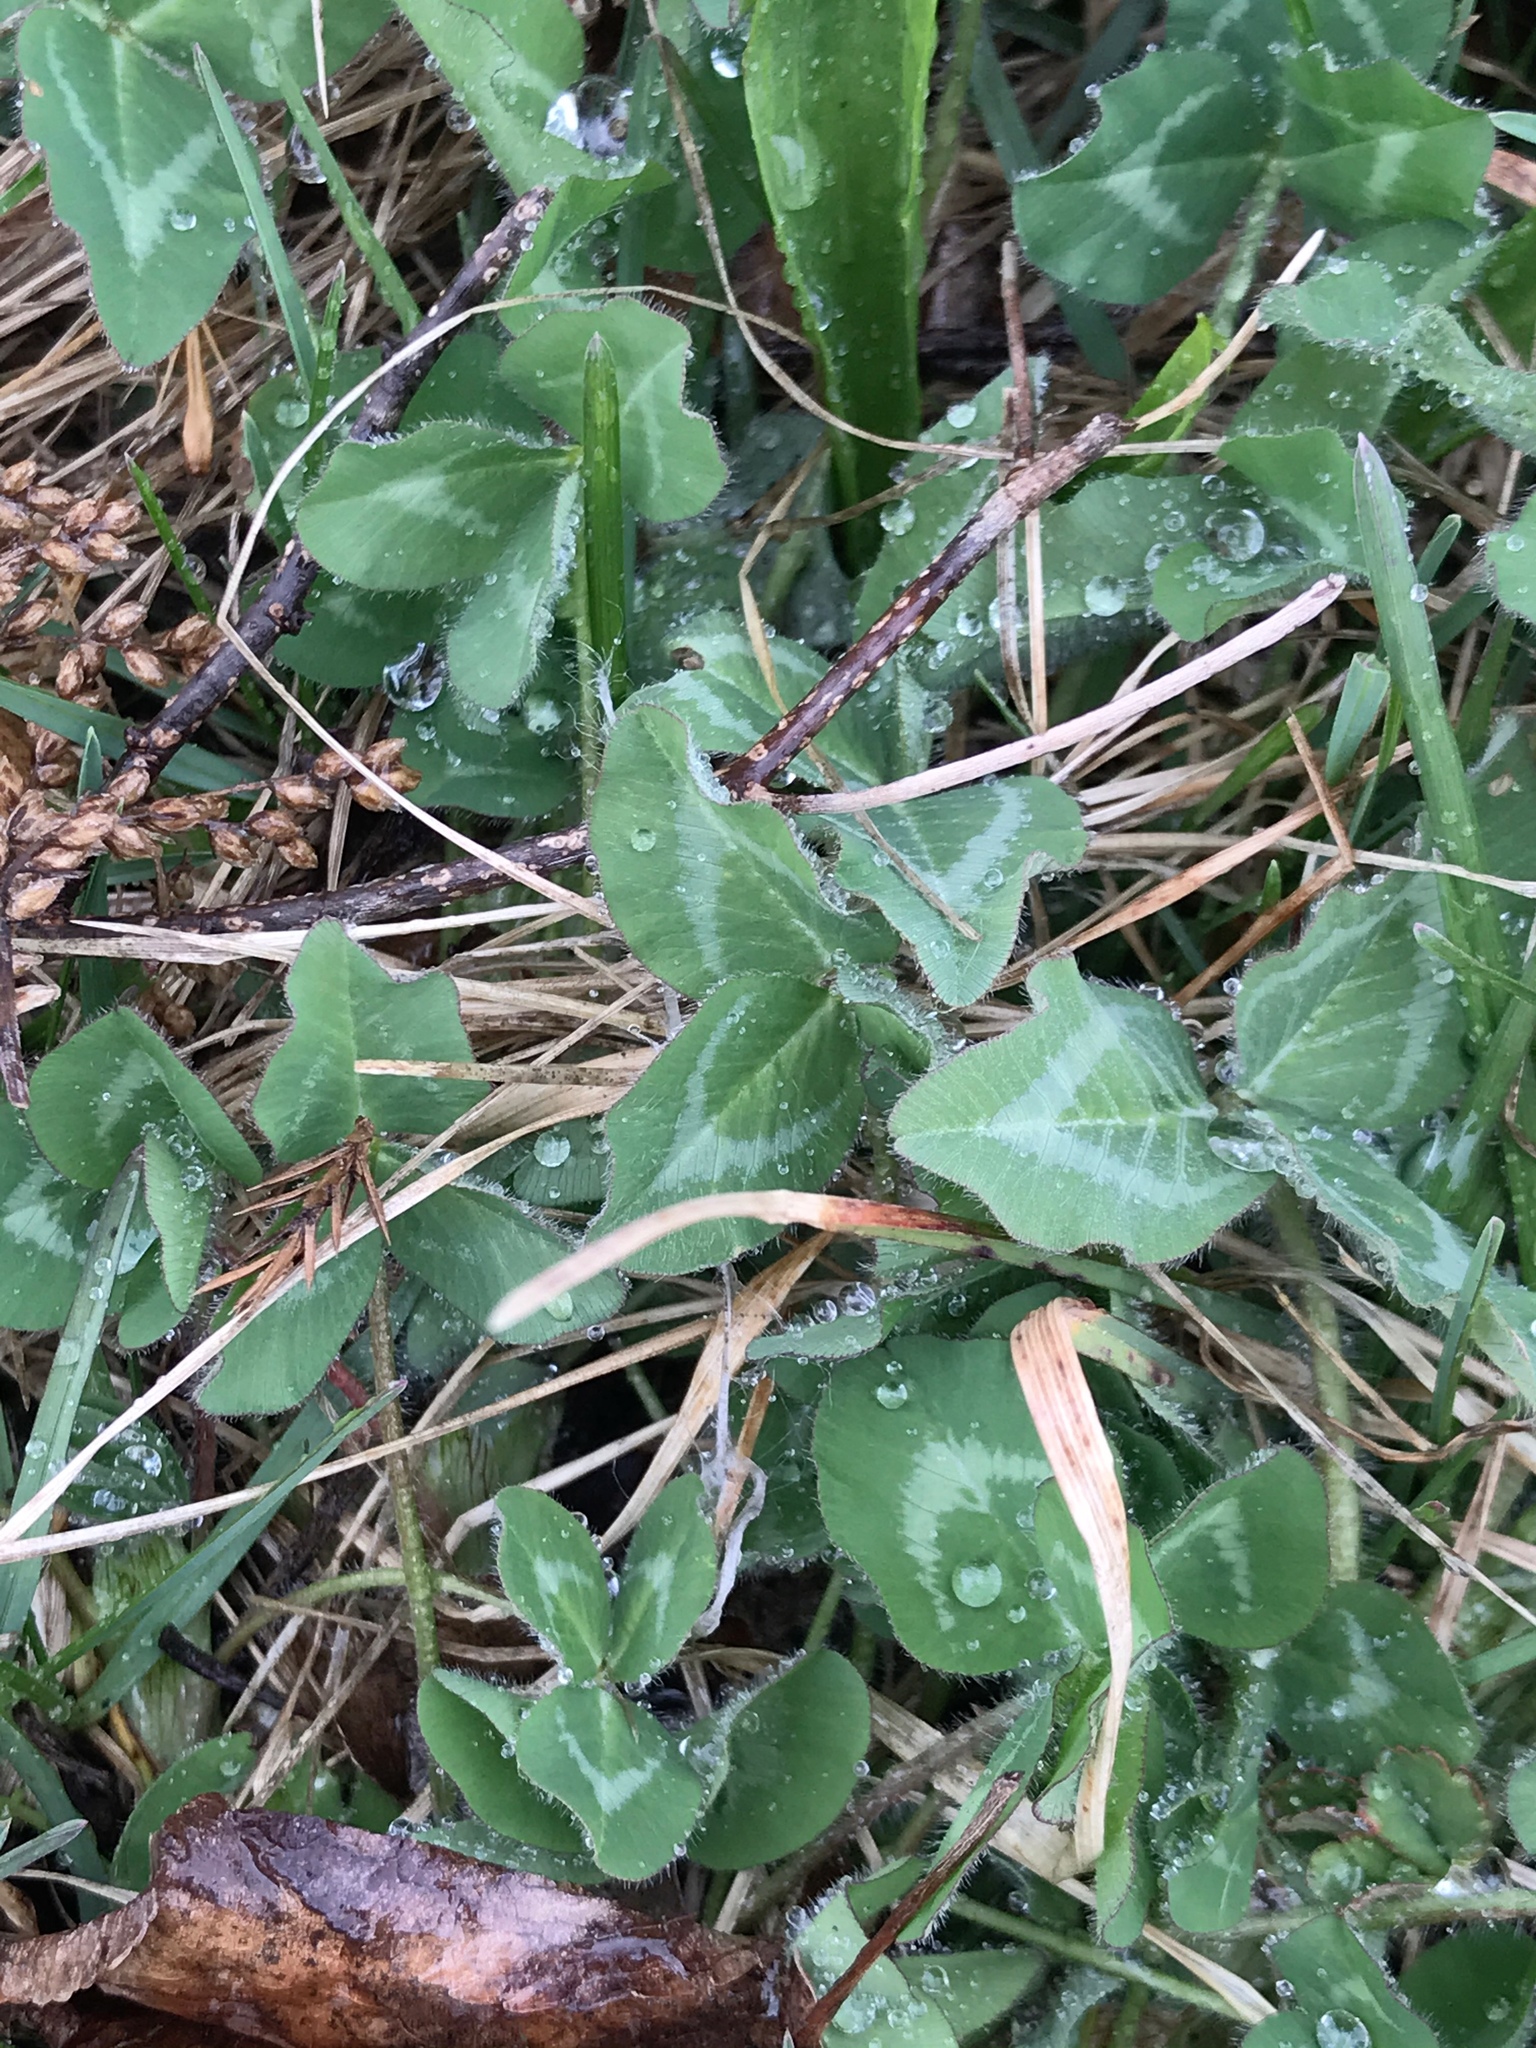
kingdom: Plantae
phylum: Tracheophyta
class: Magnoliopsida
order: Fabales
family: Fabaceae
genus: Trifolium
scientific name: Trifolium pratense
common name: Red clover
